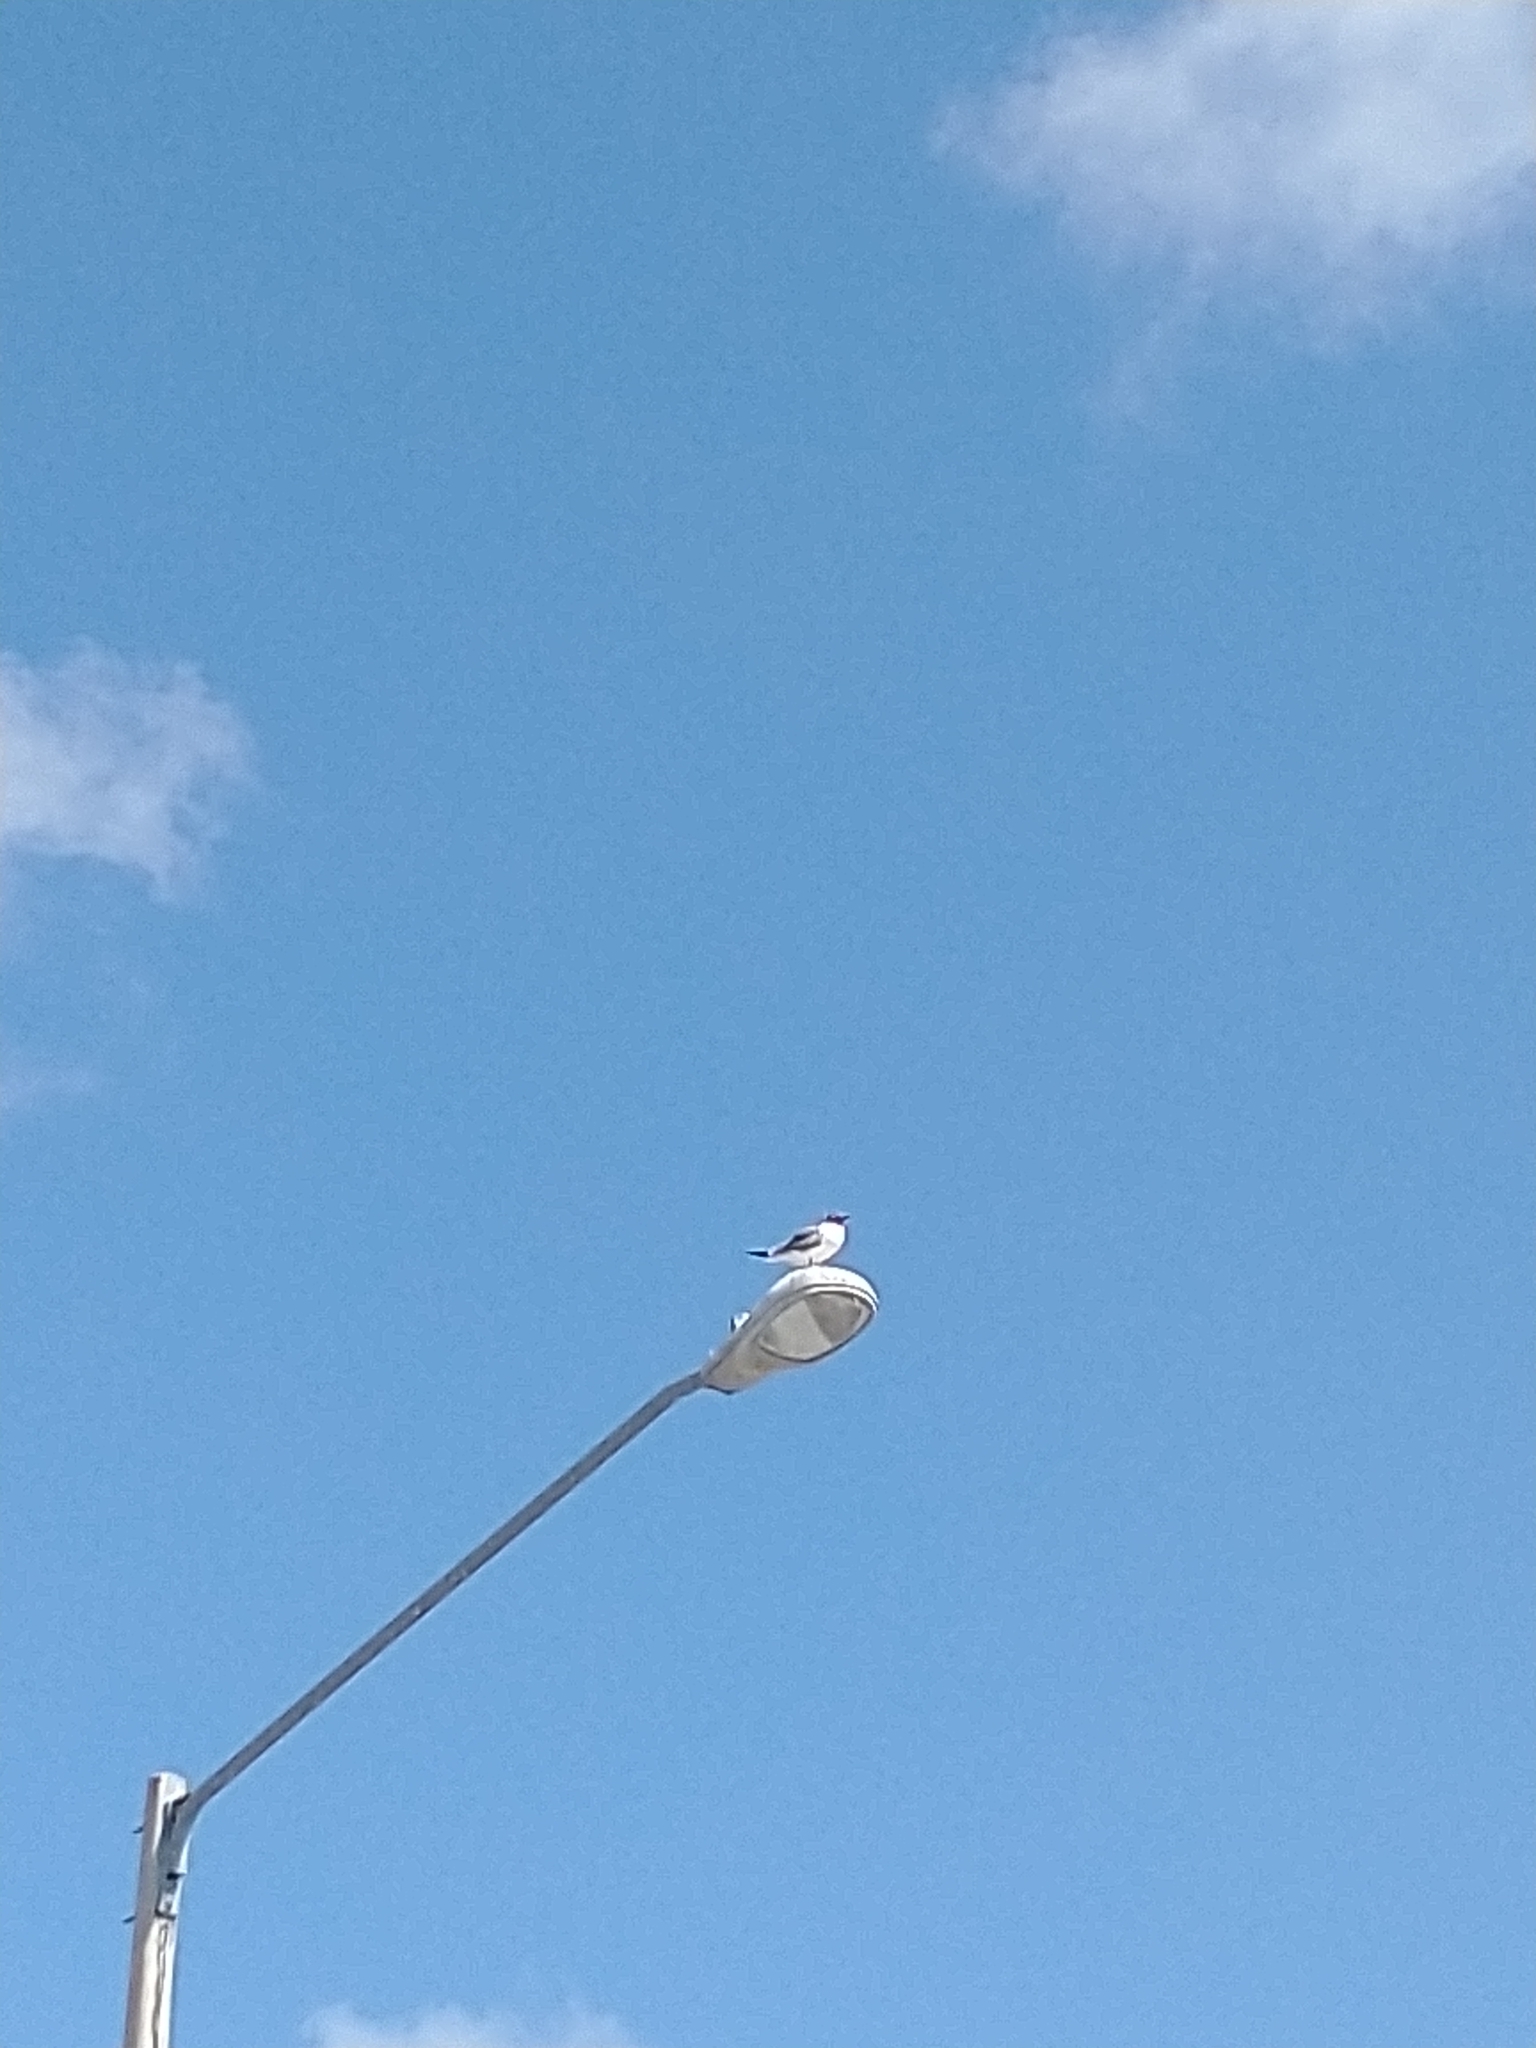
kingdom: Animalia
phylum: Chordata
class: Aves
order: Charadriiformes
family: Laridae
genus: Leucophaeus
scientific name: Leucophaeus atricilla
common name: Laughing gull
